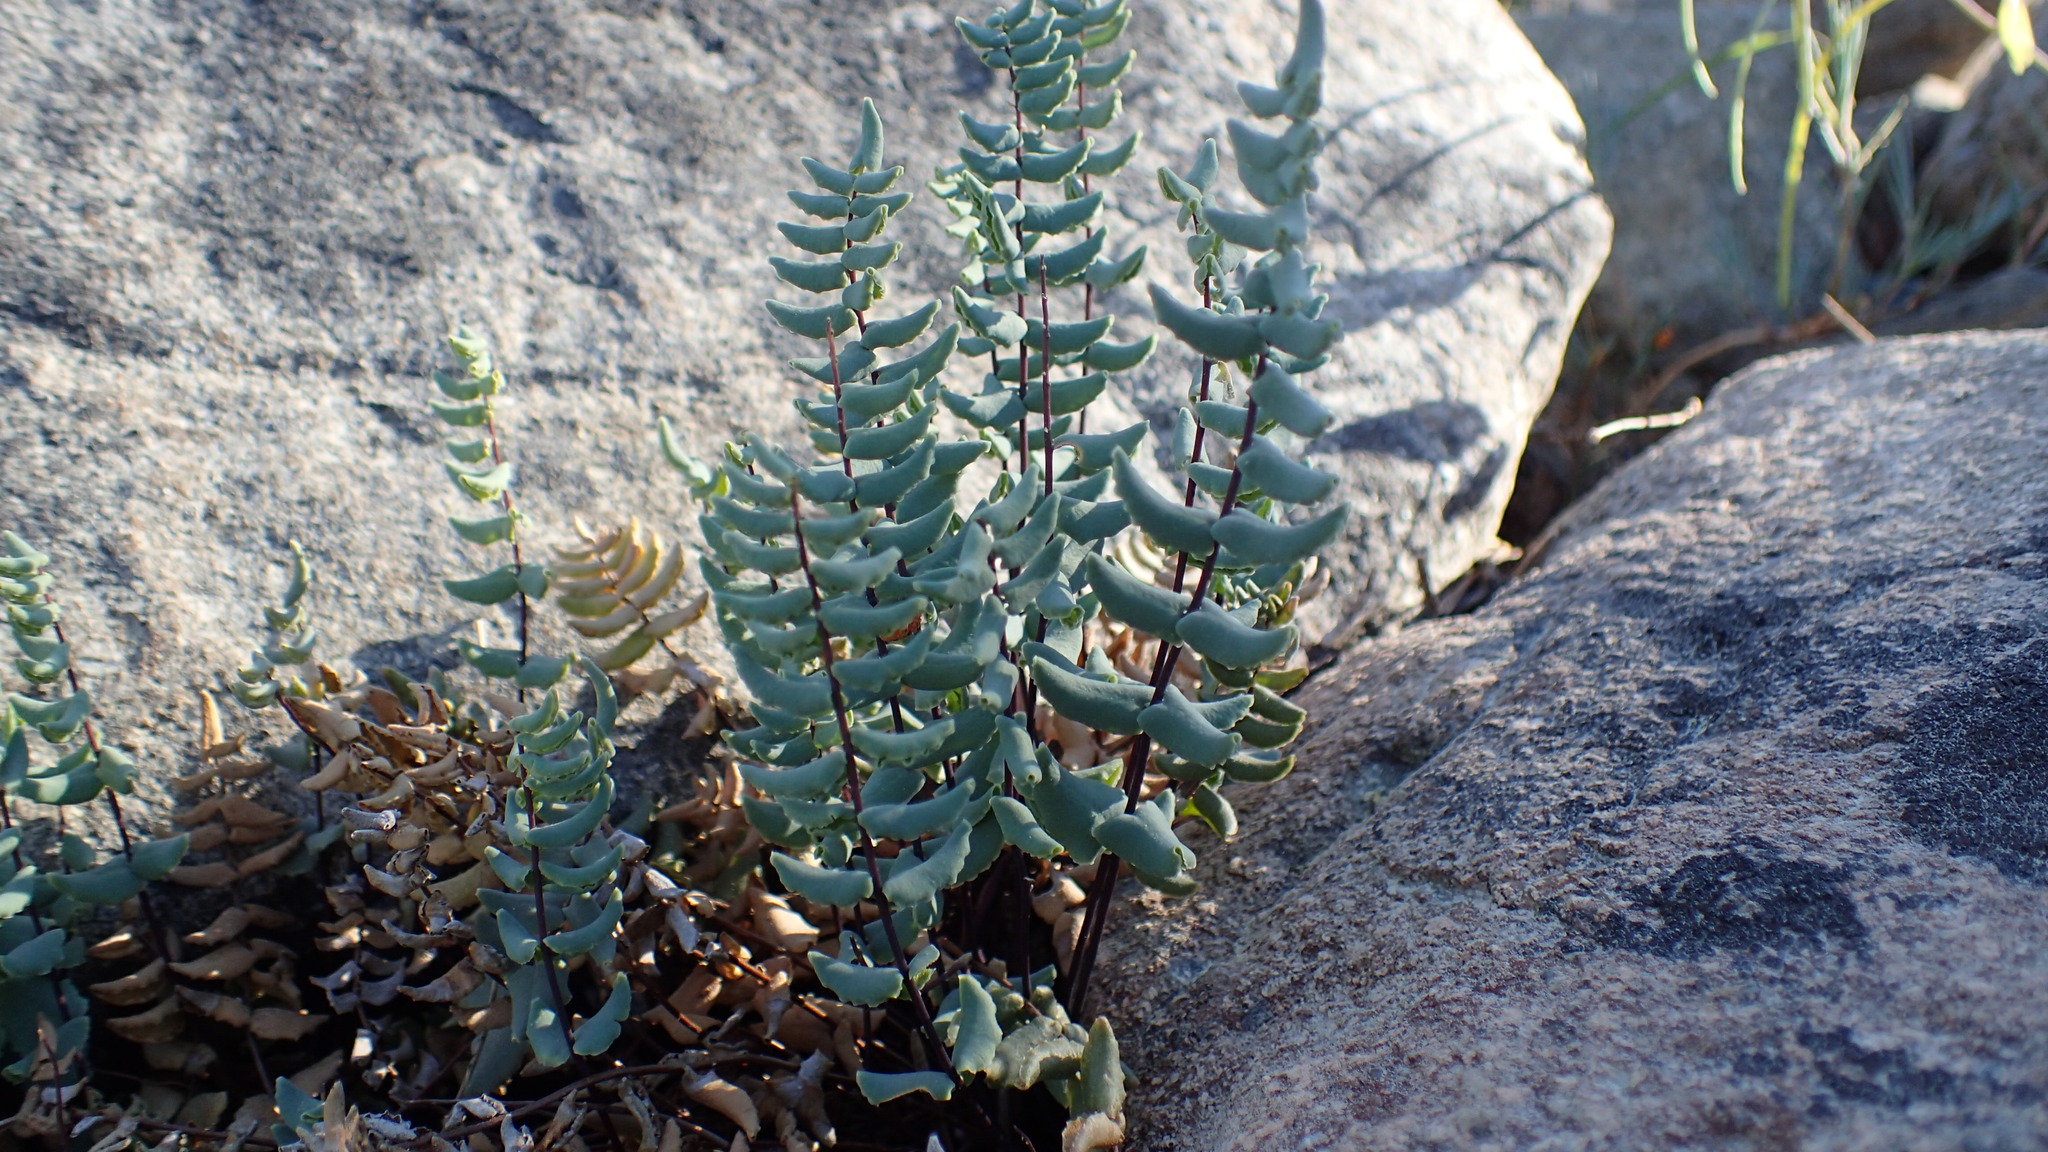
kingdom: Plantae
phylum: Tracheophyta
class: Polypodiopsida
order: Polypodiales
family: Pteridaceae
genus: Pellaea
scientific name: Pellaea bridgesii
